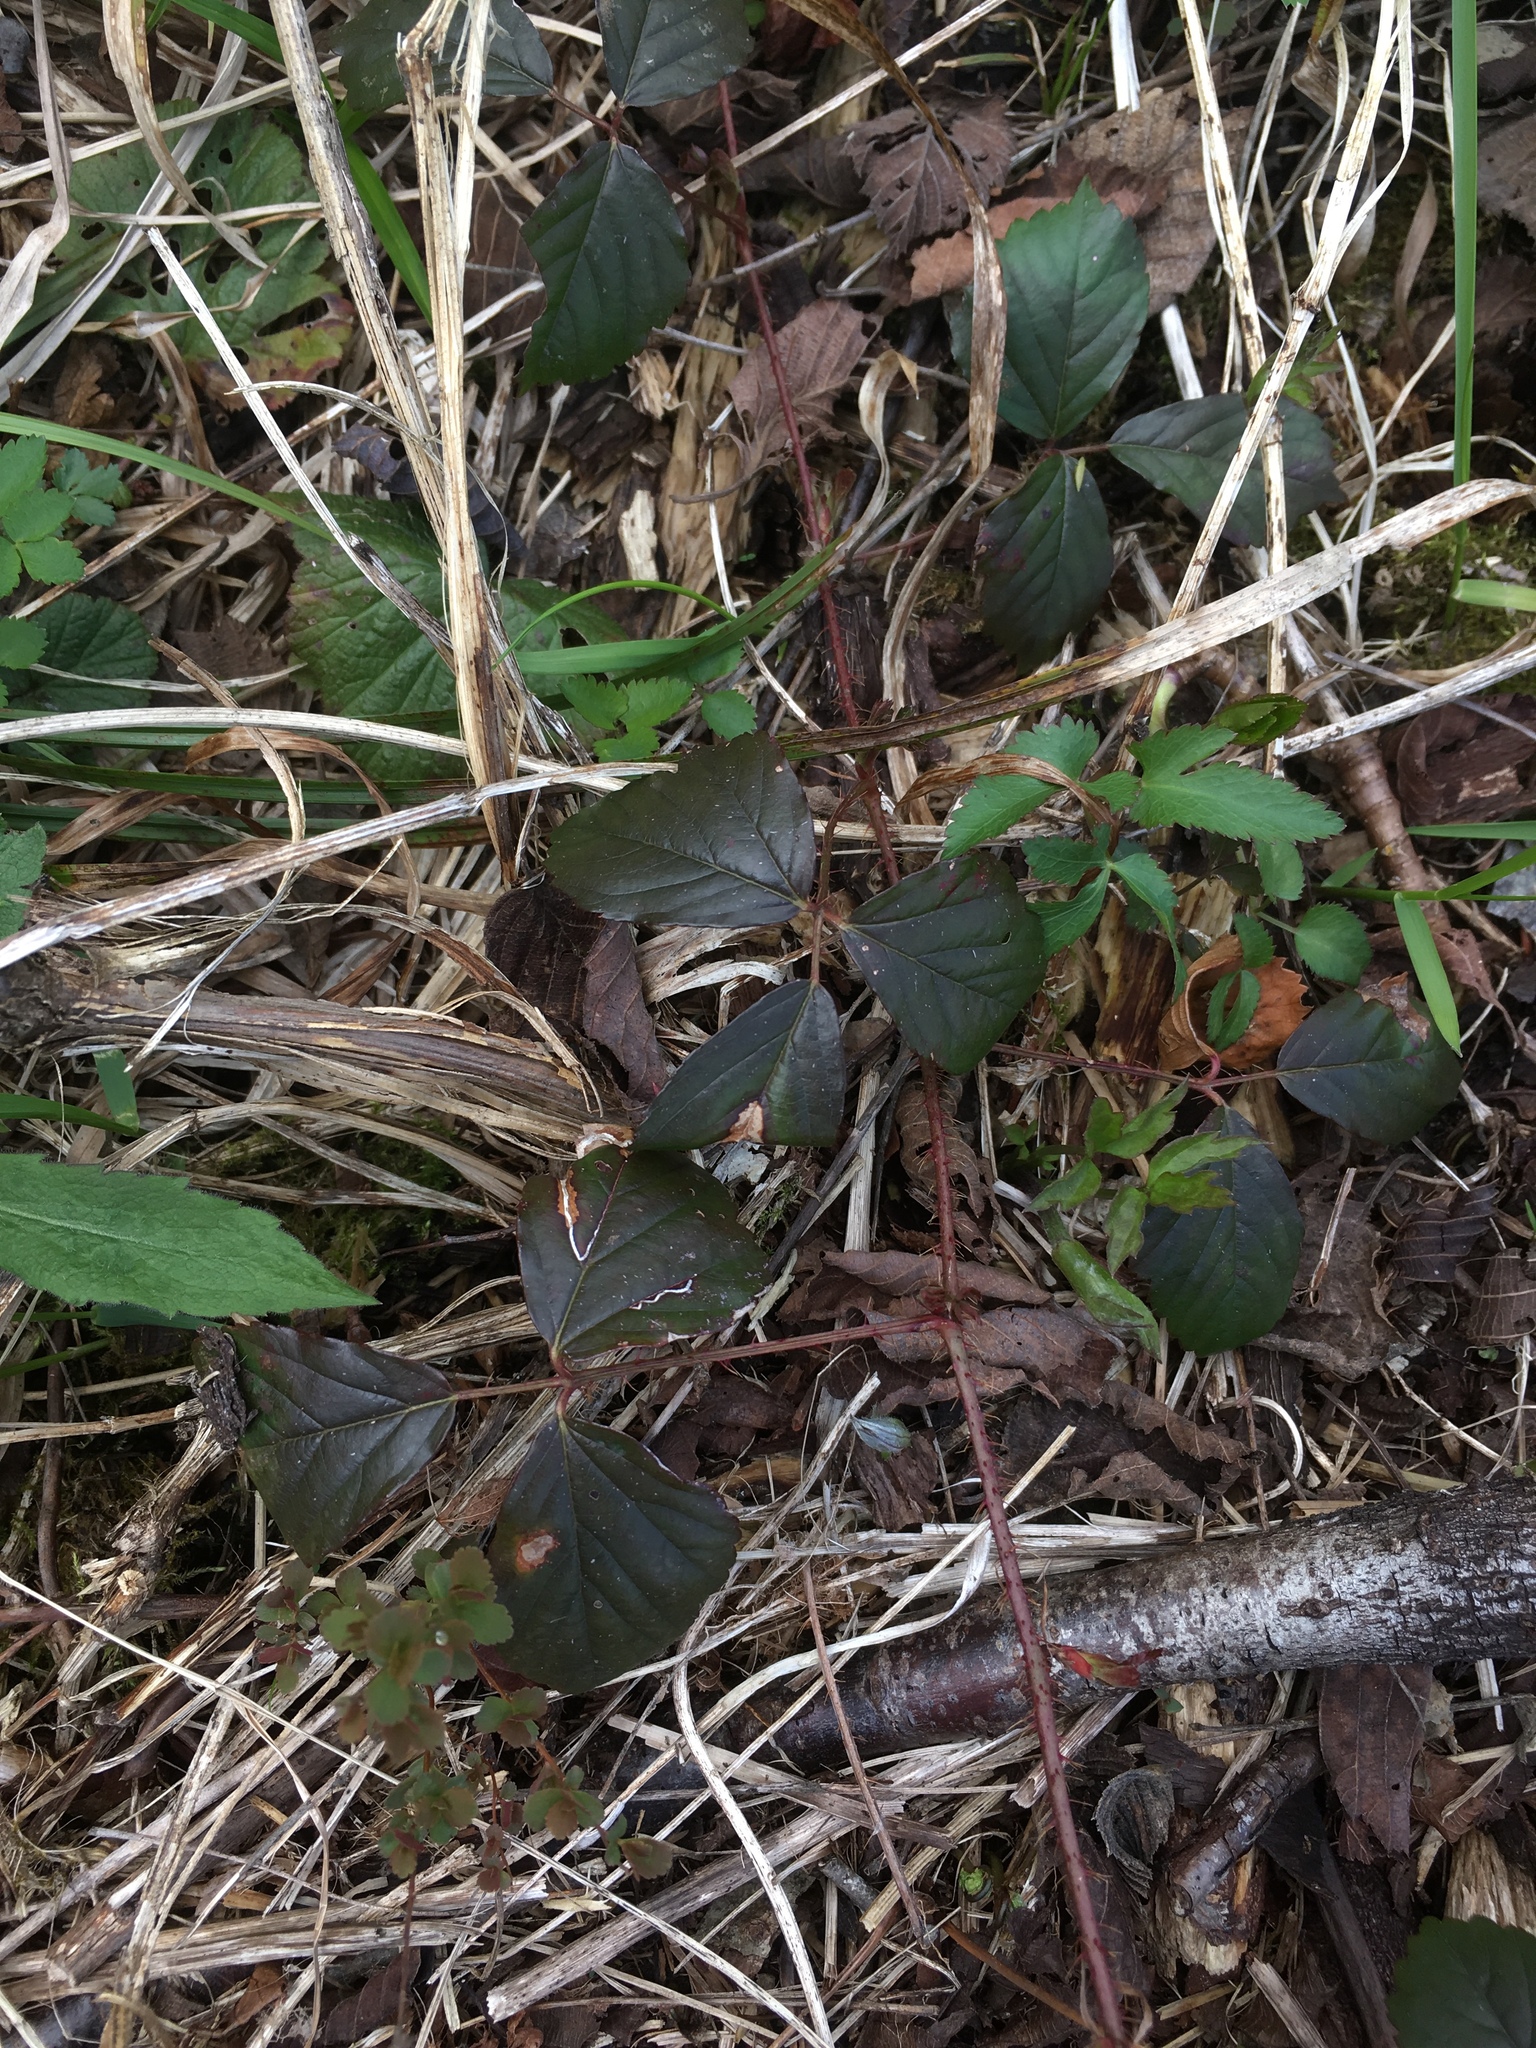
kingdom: Plantae
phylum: Tracheophyta
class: Magnoliopsida
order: Rosales
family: Rosaceae
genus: Rubus
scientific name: Rubus hispidus
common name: Running blackberry
